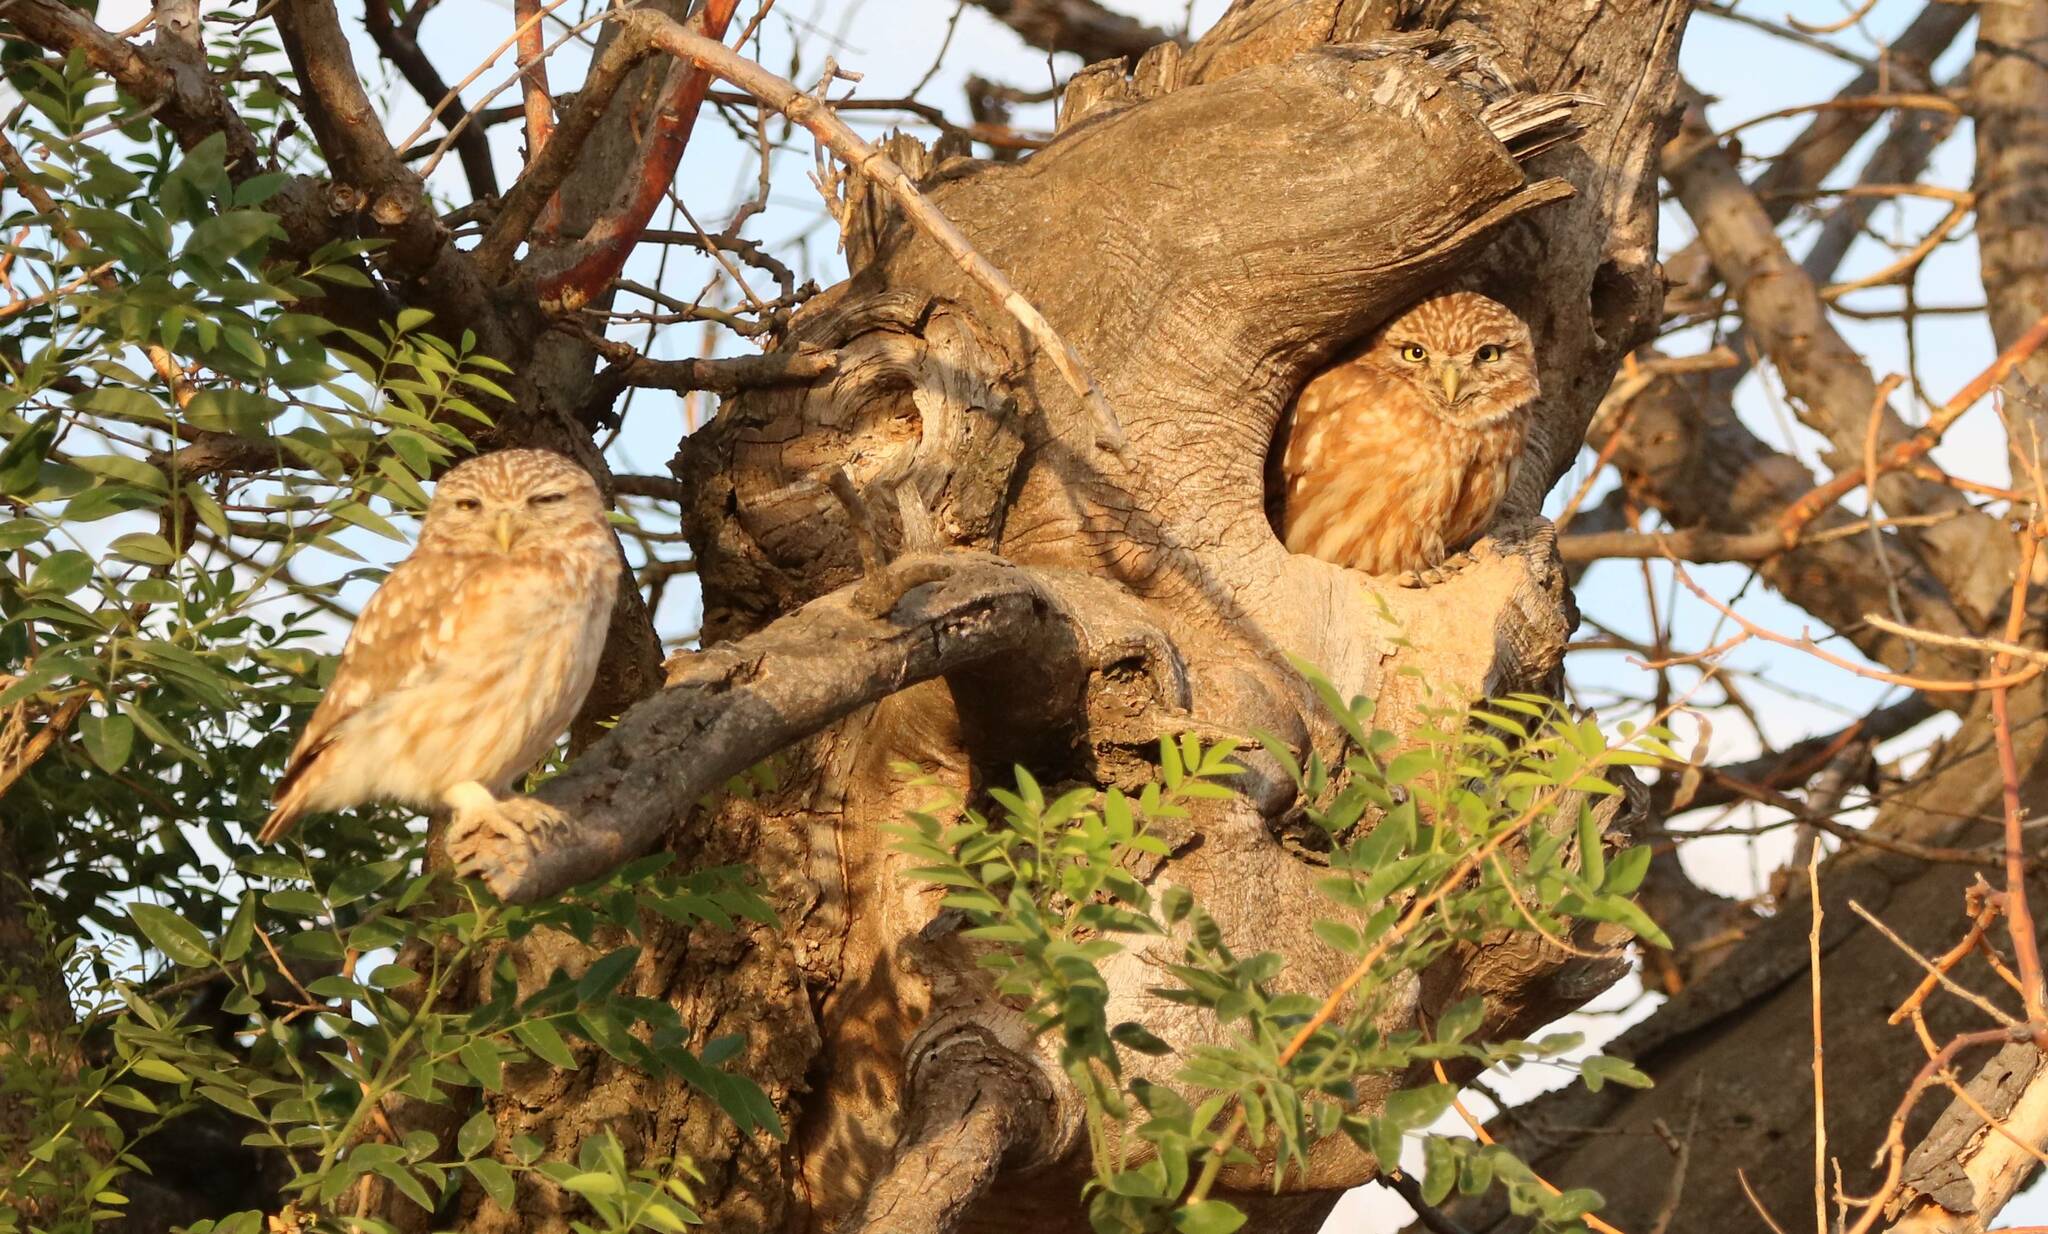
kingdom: Animalia
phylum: Chordata
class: Aves
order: Strigiformes
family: Strigidae
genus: Athene
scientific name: Athene noctua
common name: Little owl
